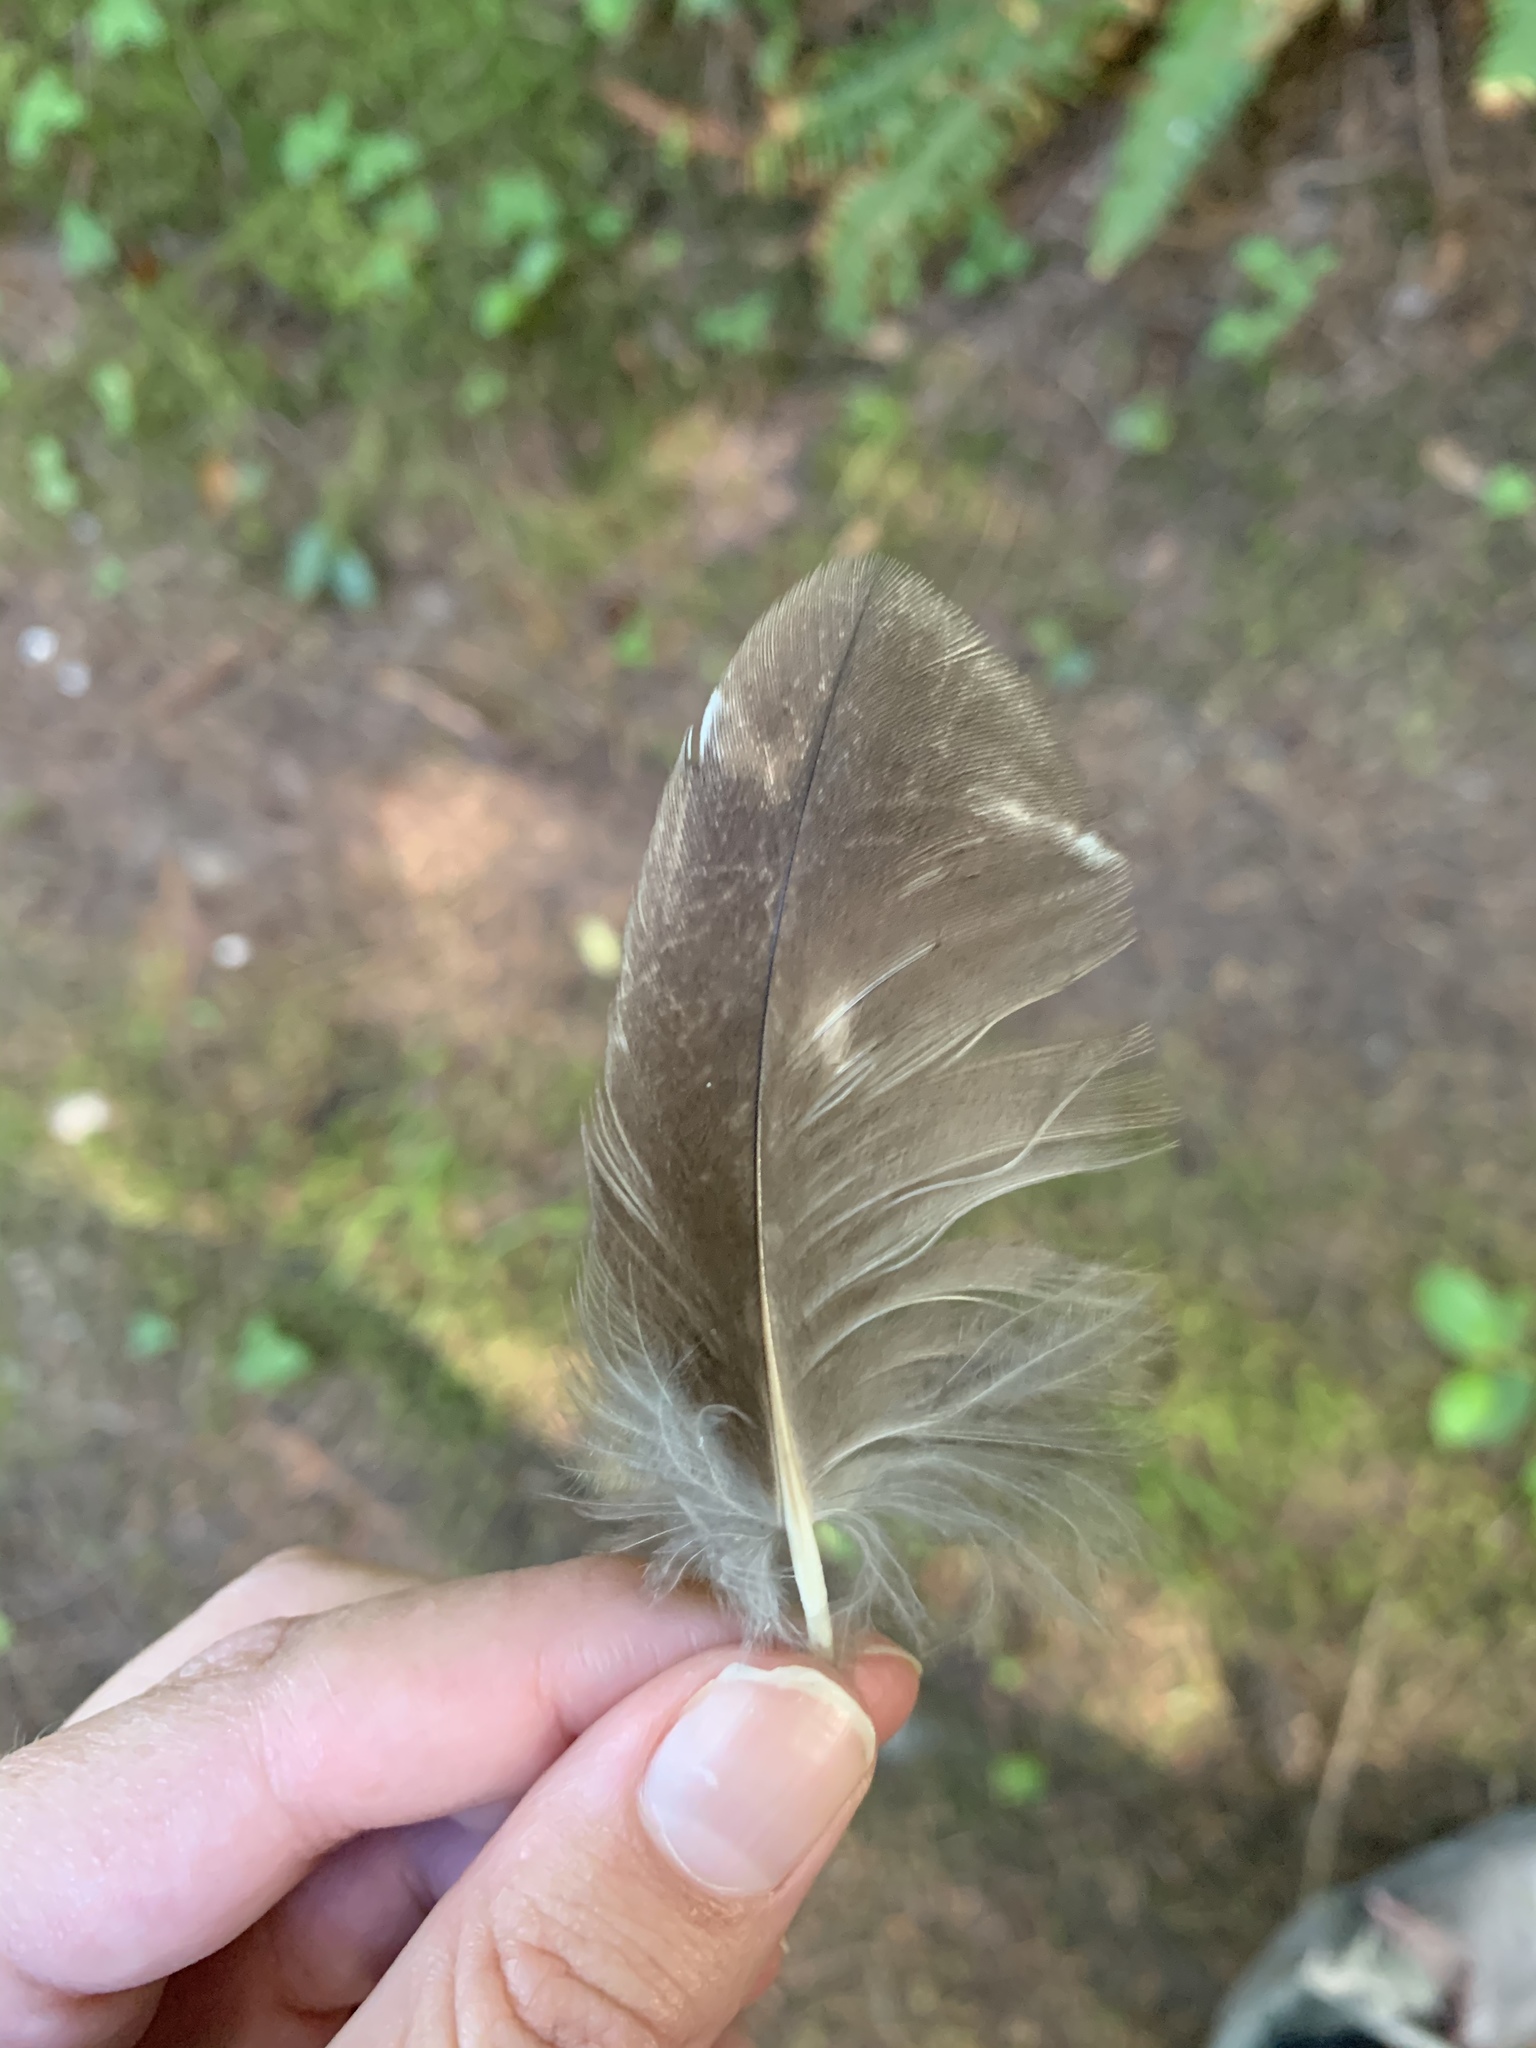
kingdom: Animalia
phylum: Chordata
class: Aves
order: Strigiformes
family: Strigidae
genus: Strix
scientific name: Strix varia
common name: Barred owl
